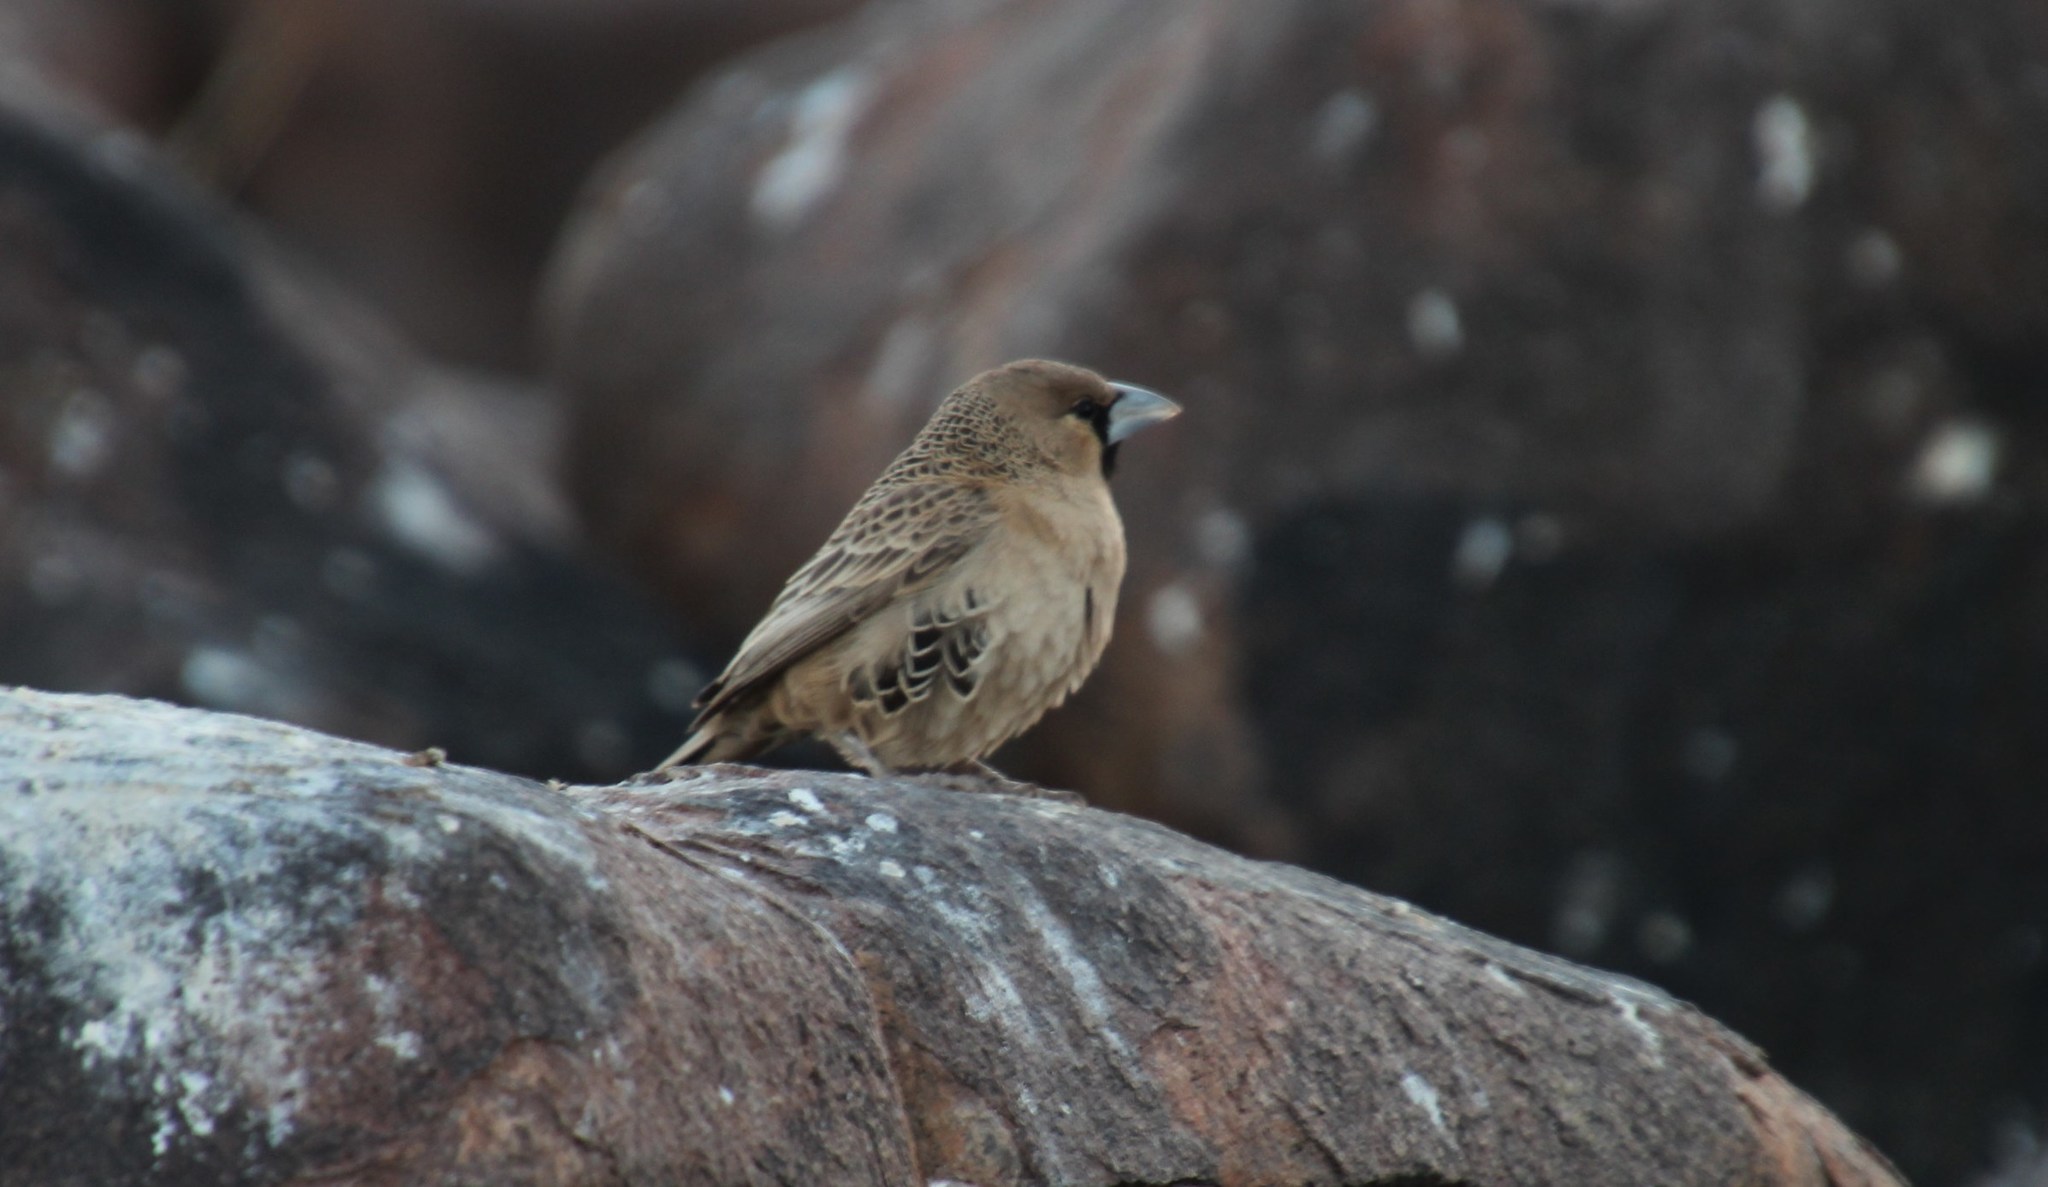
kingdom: Animalia
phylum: Chordata
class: Aves
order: Passeriformes
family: Passeridae
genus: Philetairus
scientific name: Philetairus socius
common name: Sociable weaver
